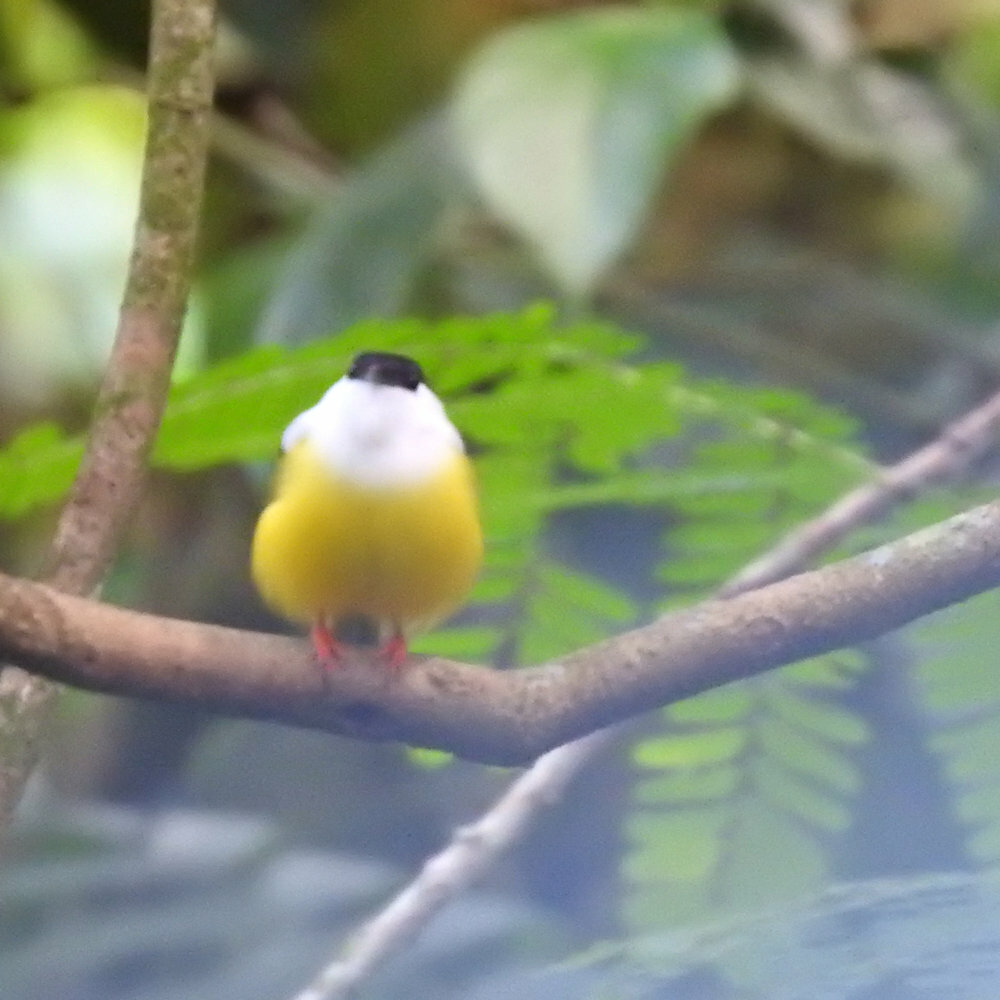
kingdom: Animalia
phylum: Chordata
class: Aves
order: Passeriformes
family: Pipridae
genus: Manacus
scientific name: Manacus candei
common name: White-collared manakin
